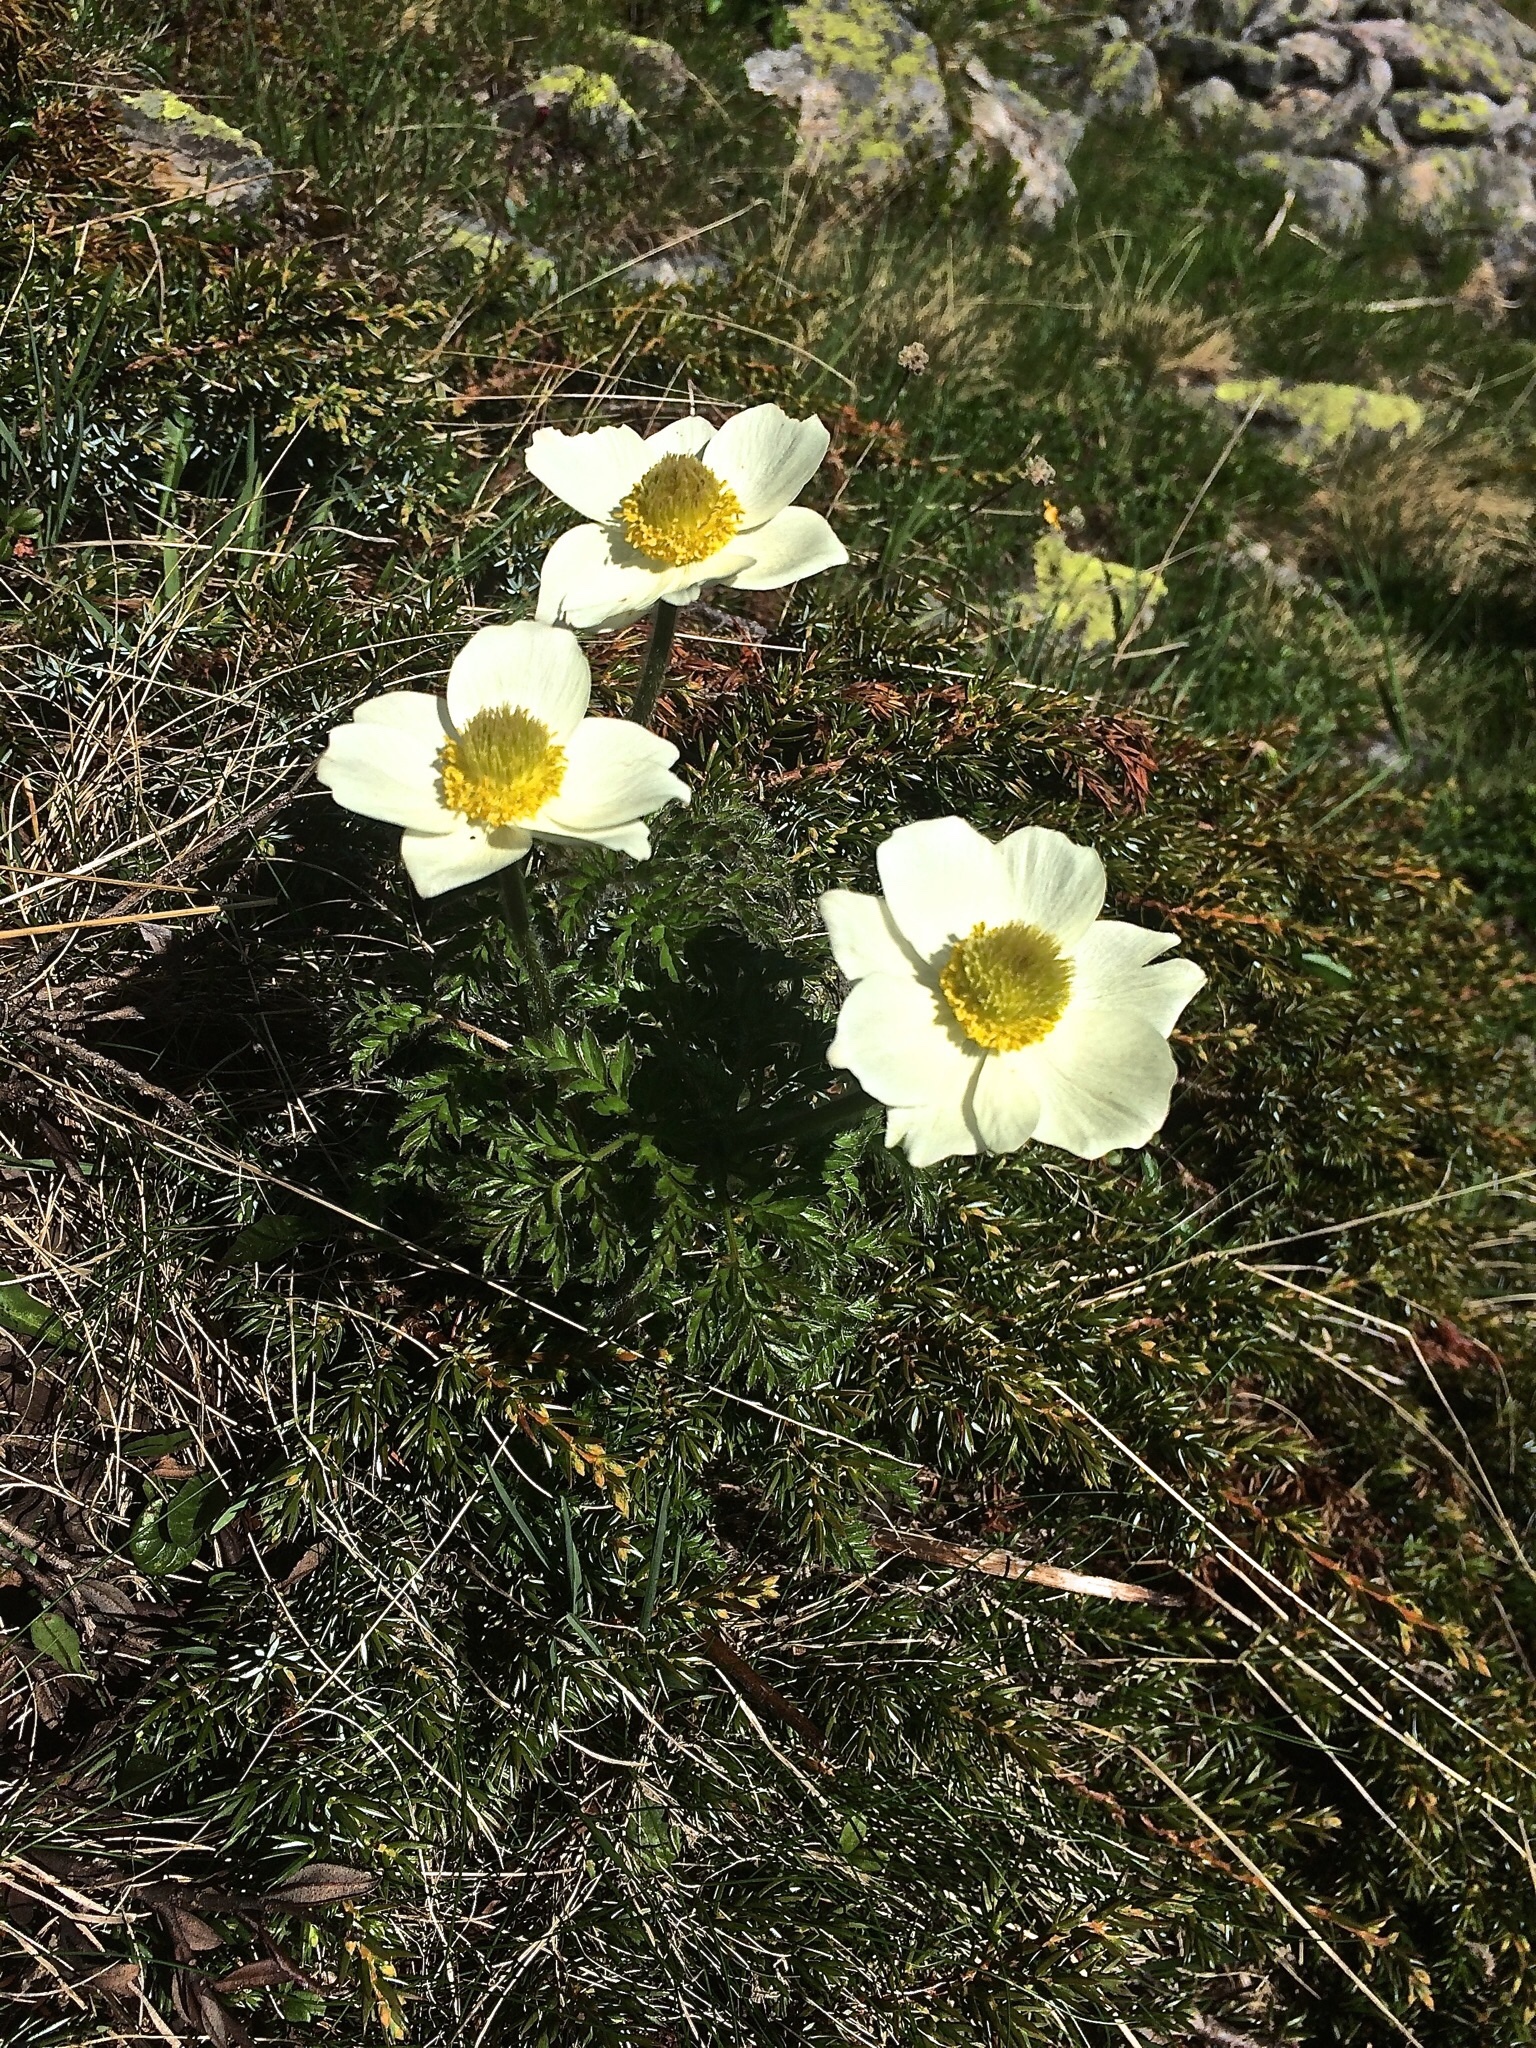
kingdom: Plantae
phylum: Tracheophyta
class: Magnoliopsida
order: Ranunculales
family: Ranunculaceae
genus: Pulsatilla
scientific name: Pulsatilla alpina
